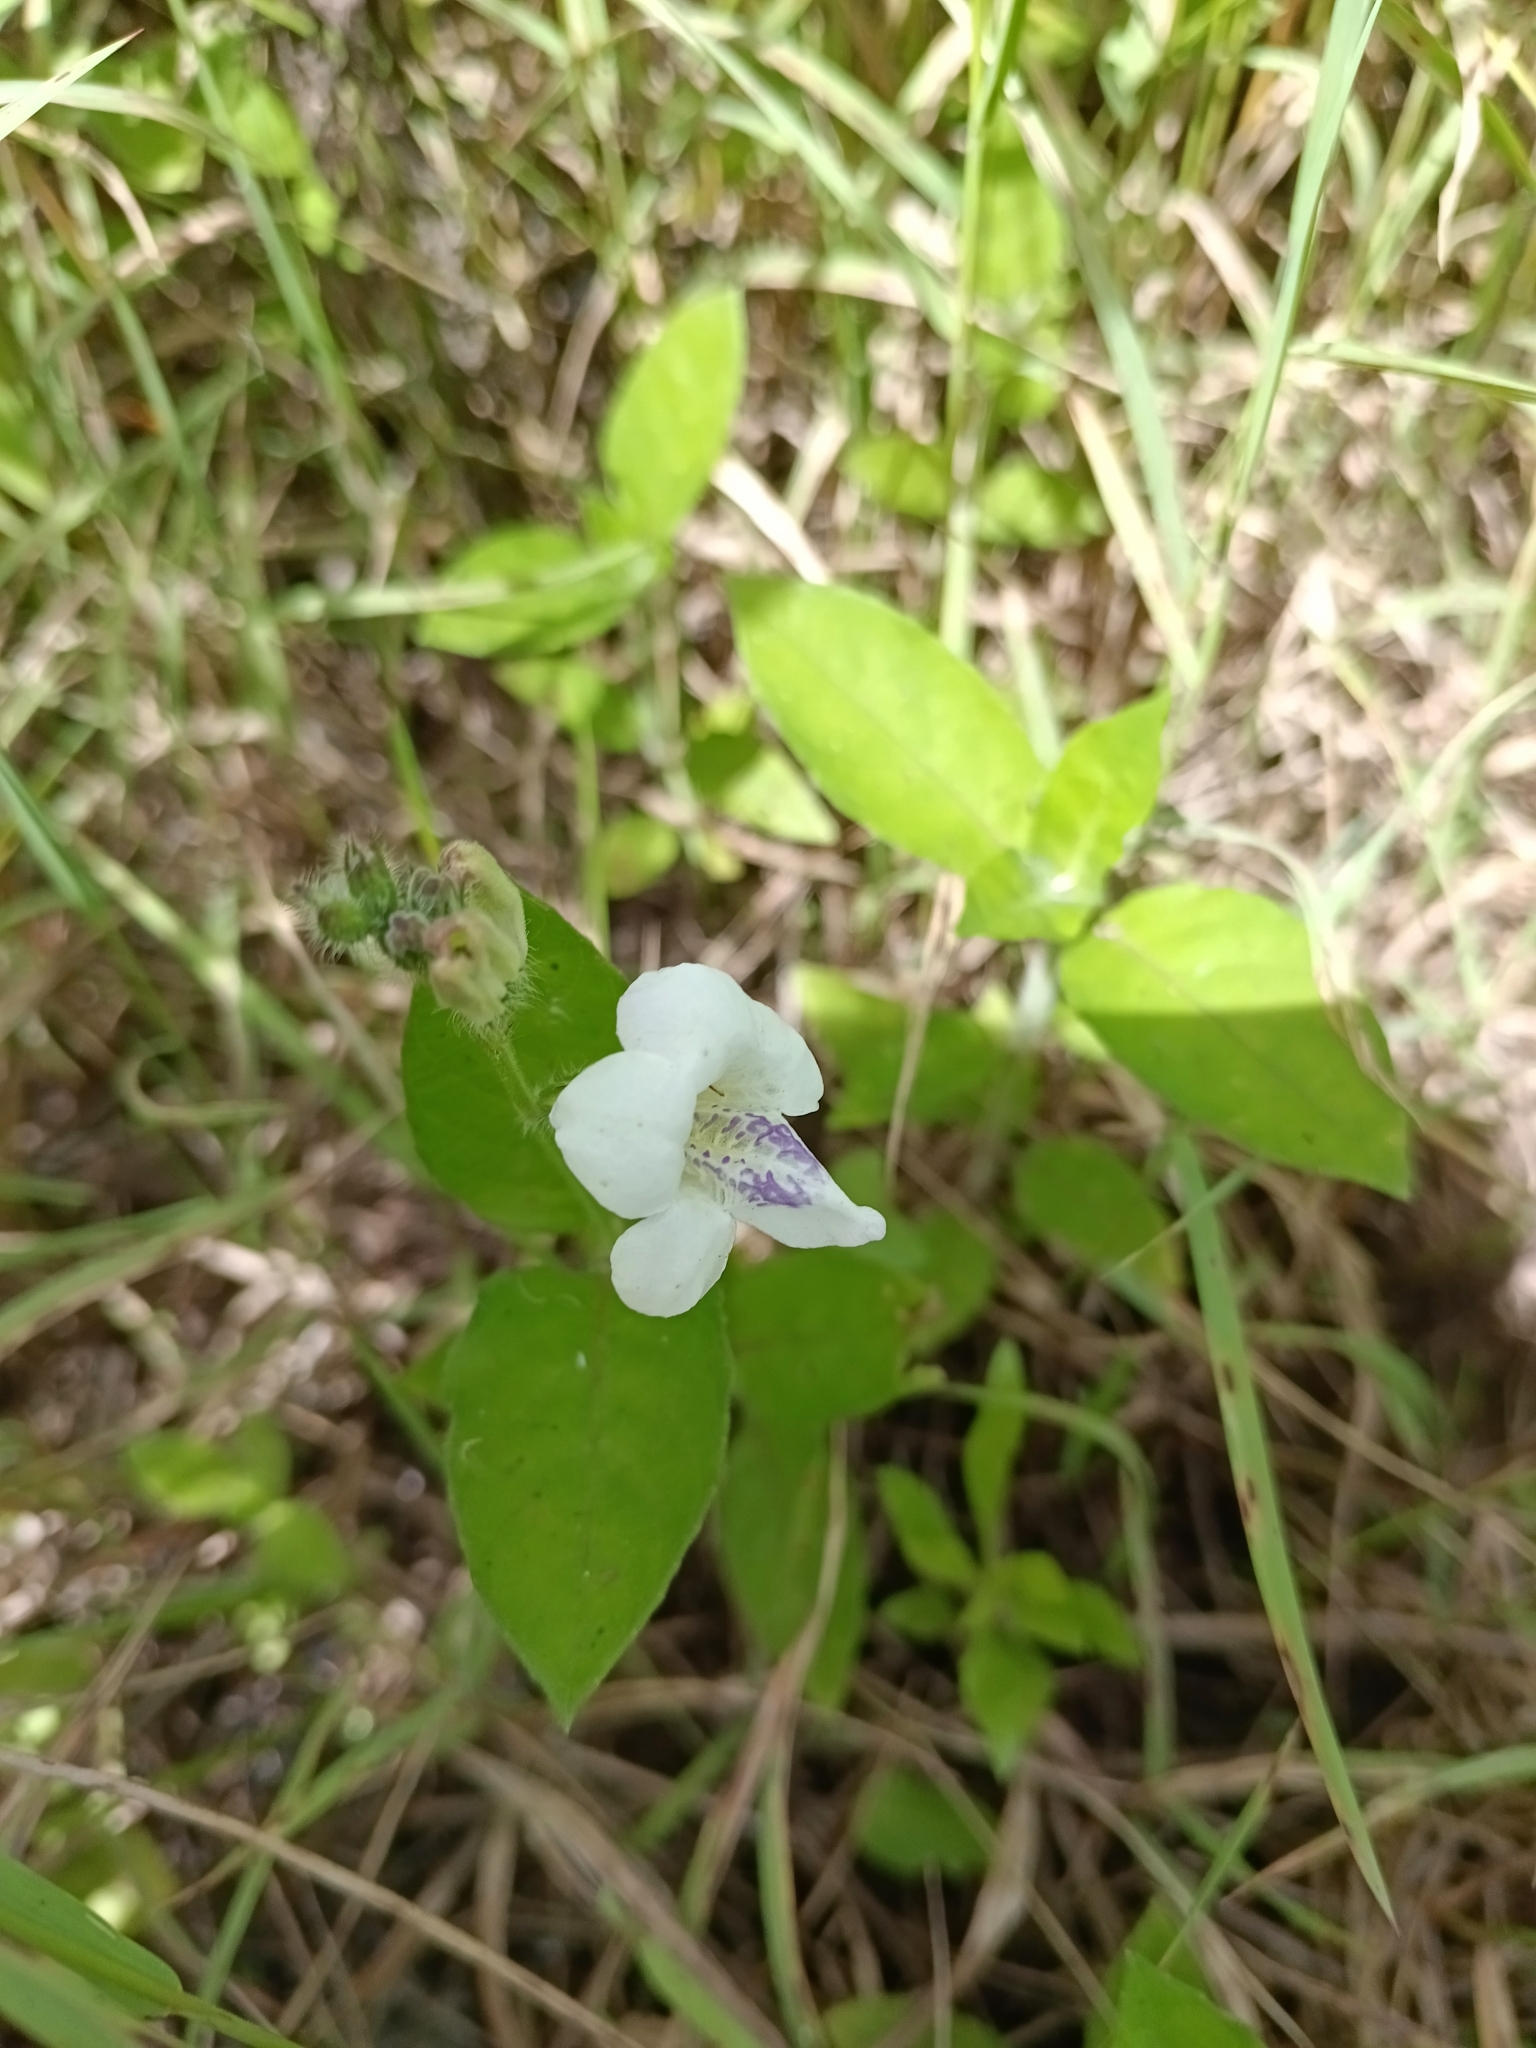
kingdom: Plantae
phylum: Tracheophyta
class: Magnoliopsida
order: Lamiales
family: Acanthaceae
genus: Asystasia
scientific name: Asystasia intrusa
